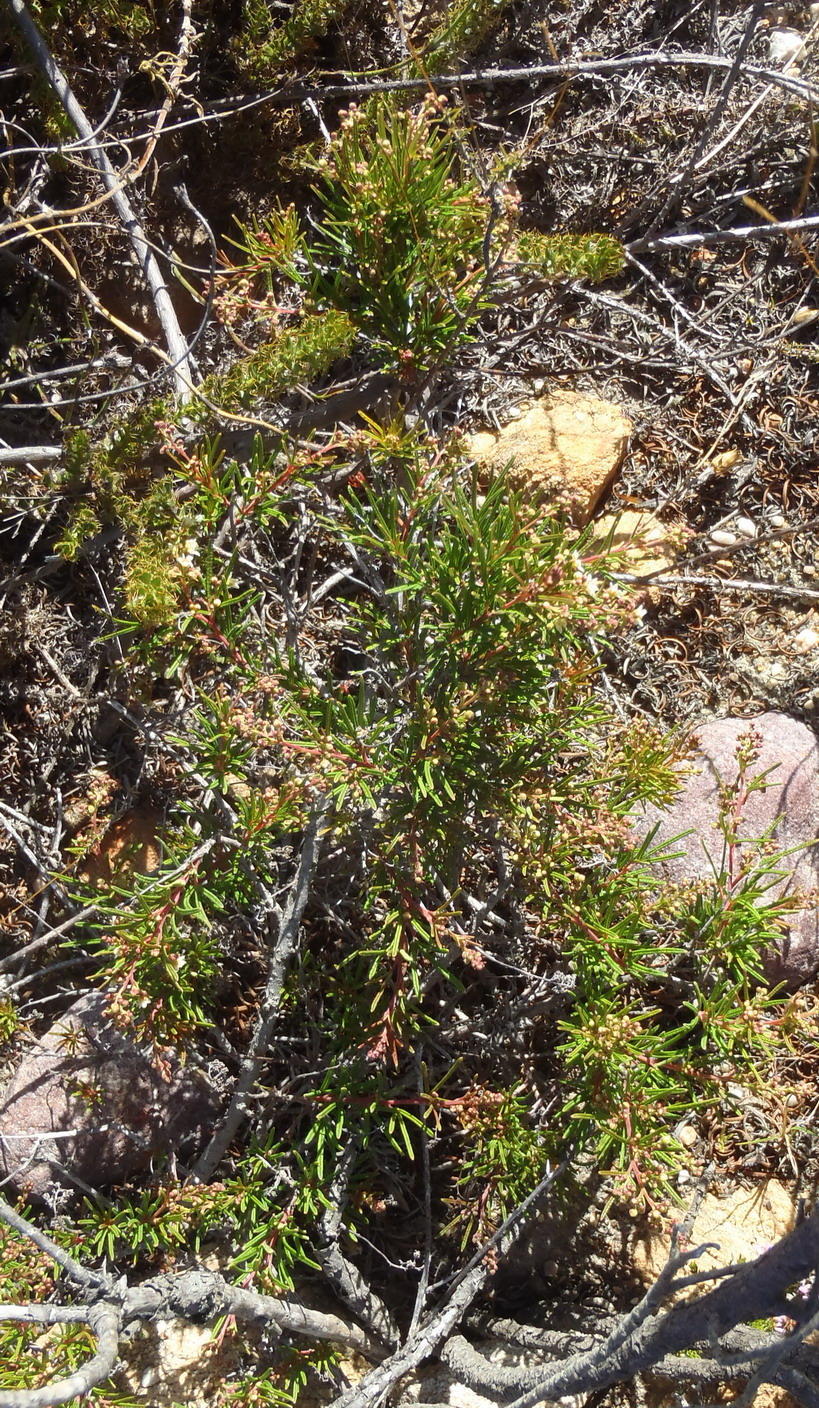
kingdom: Plantae
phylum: Tracheophyta
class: Magnoliopsida
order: Sapindales
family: Anacardiaceae
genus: Searsia
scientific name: Searsia rosmarinifolia
